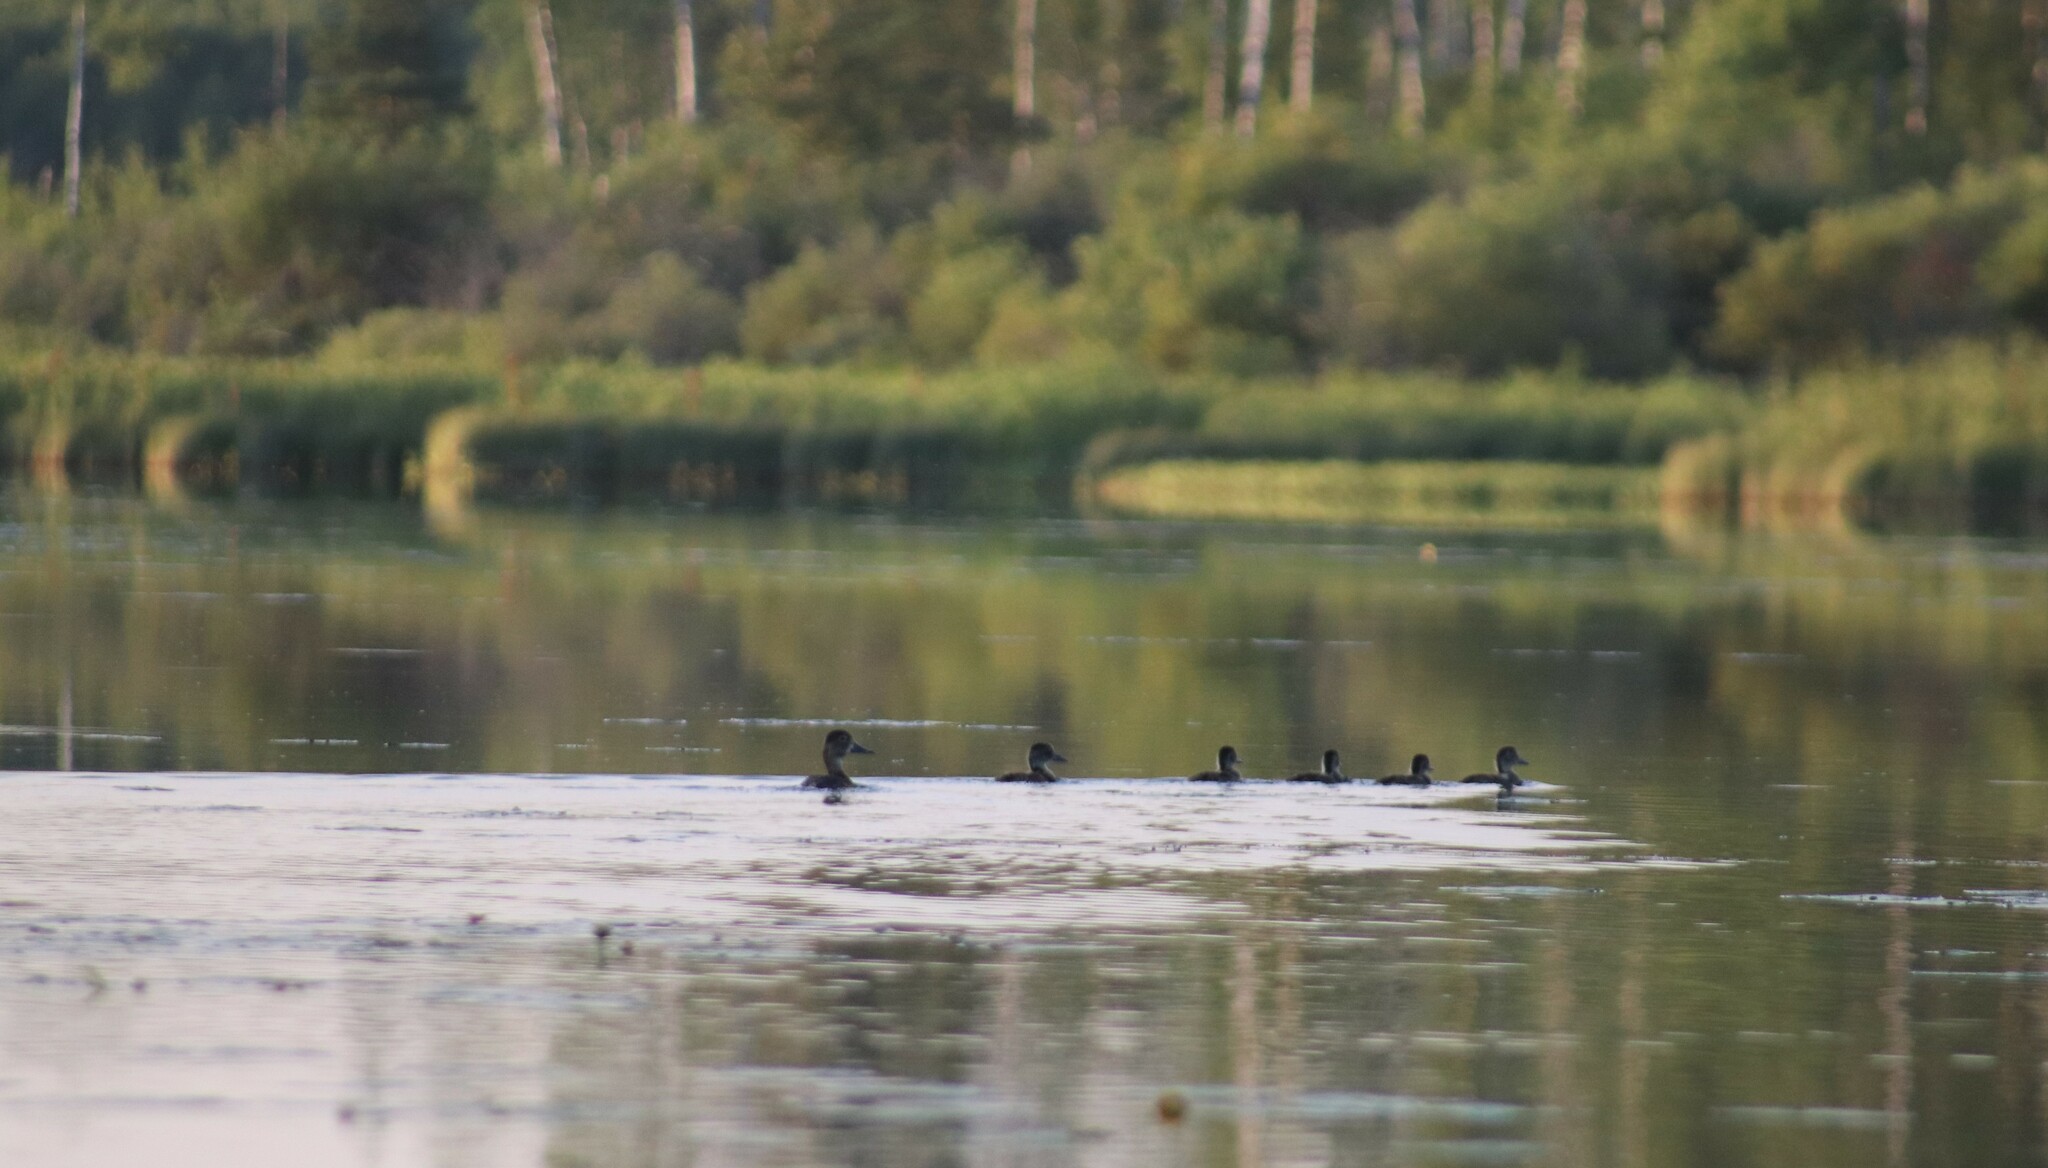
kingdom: Animalia
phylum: Chordata
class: Aves
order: Anseriformes
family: Anatidae
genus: Aythya
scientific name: Aythya collaris
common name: Ring-necked duck
